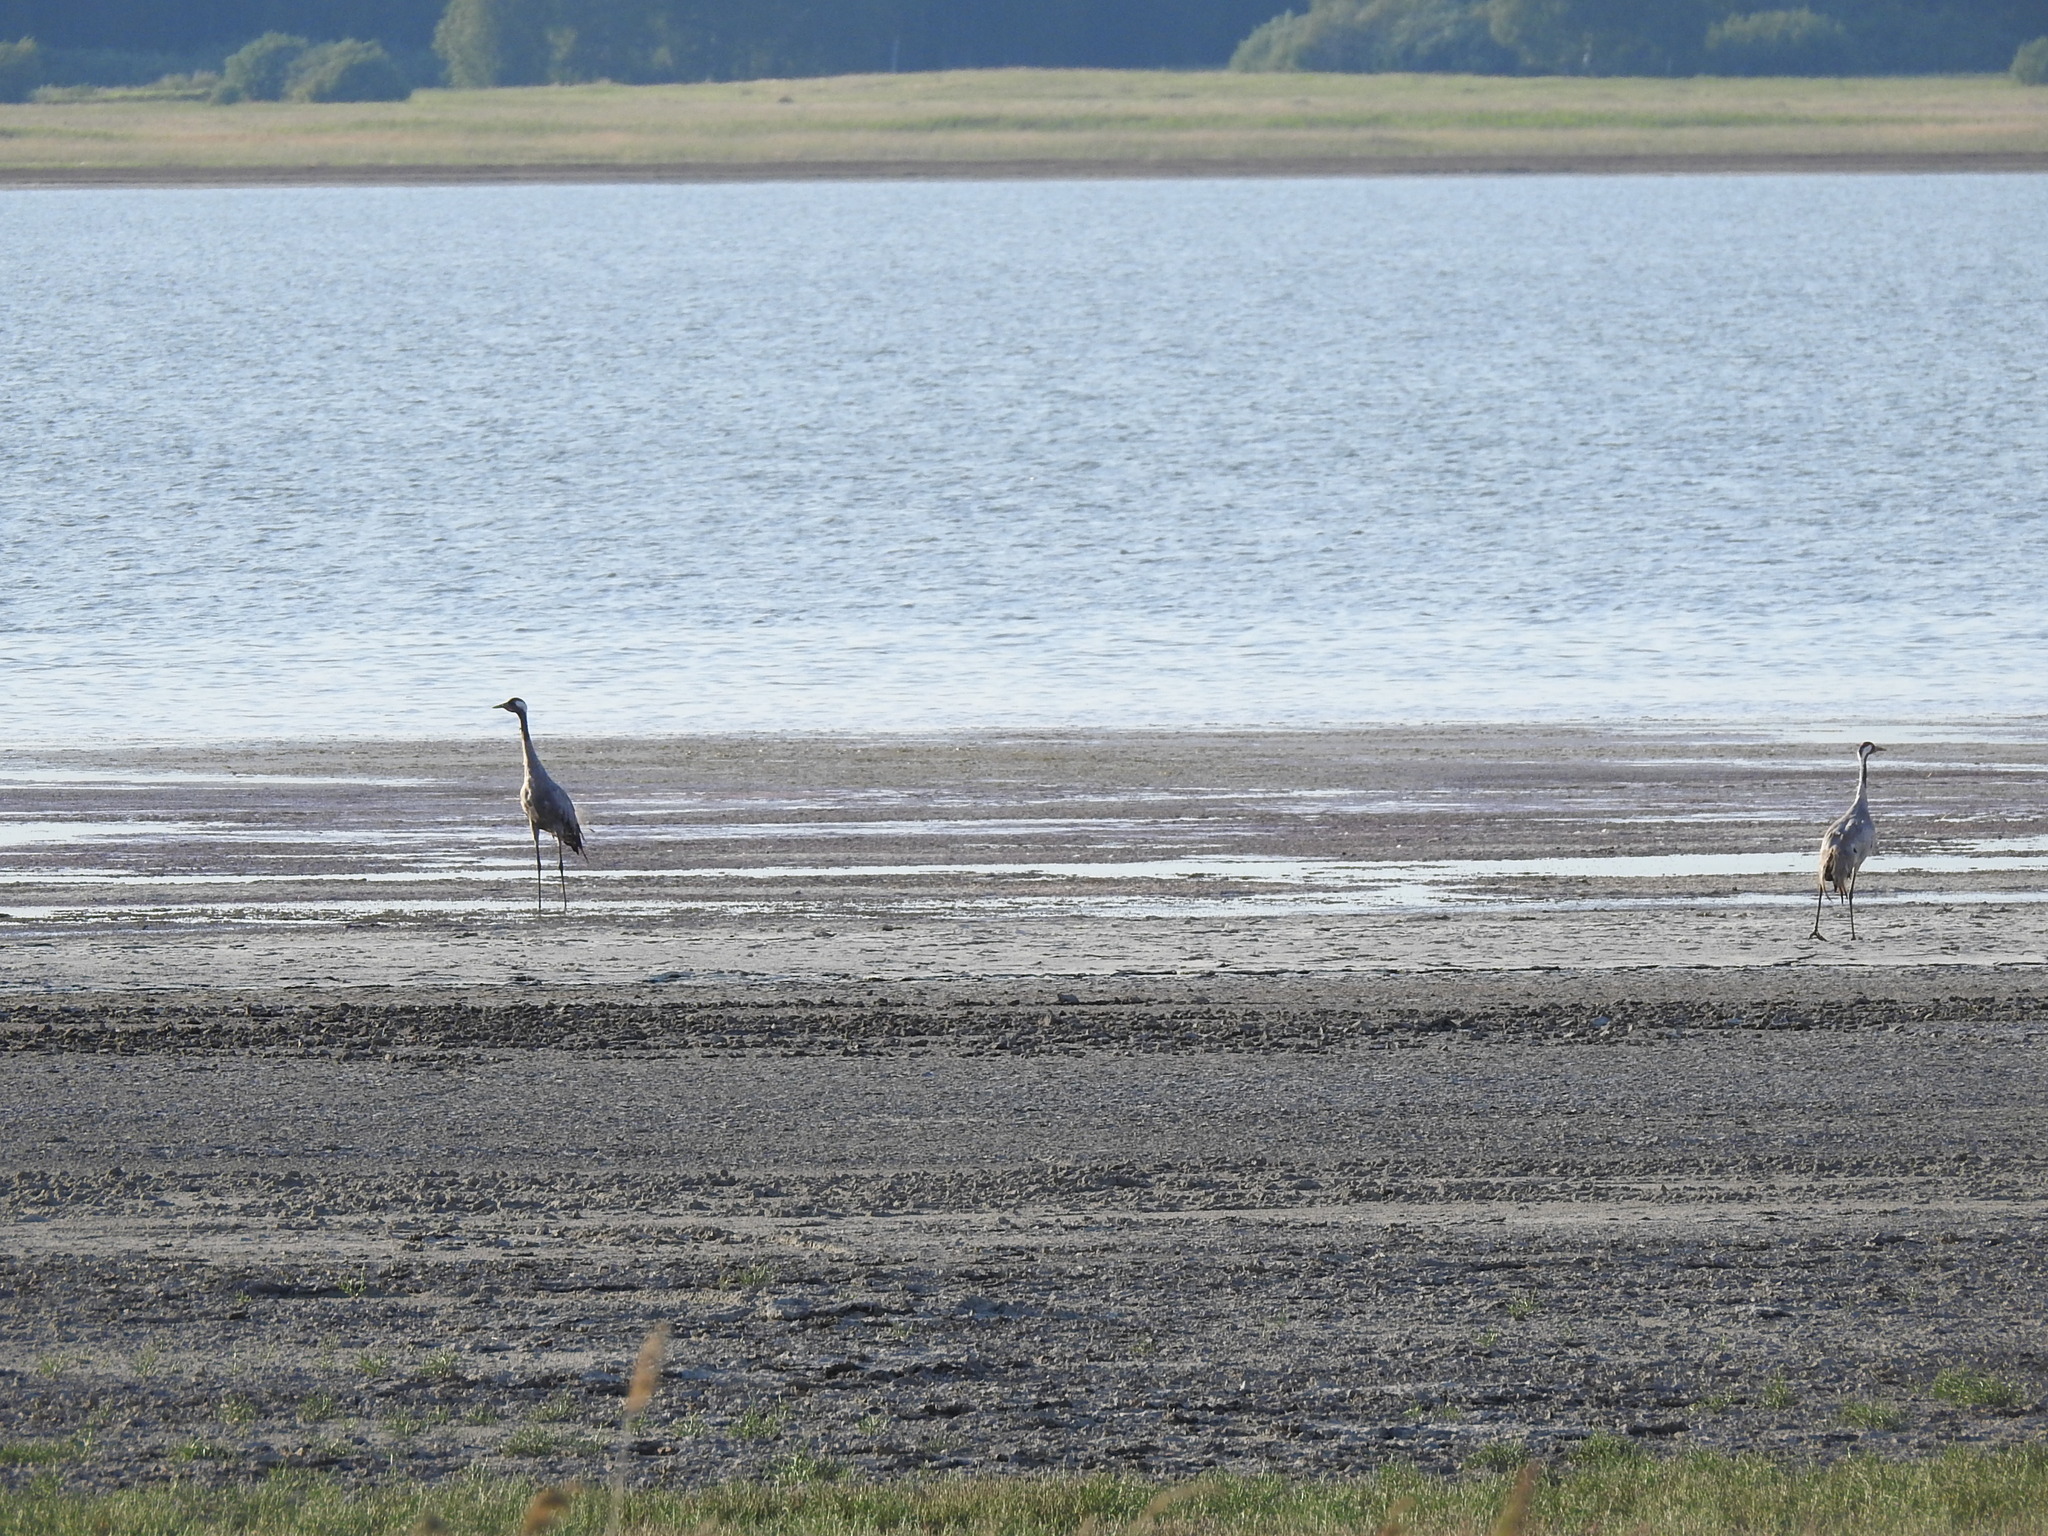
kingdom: Animalia
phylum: Chordata
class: Aves
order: Gruiformes
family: Gruidae
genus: Grus
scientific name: Grus grus
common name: Common crane
